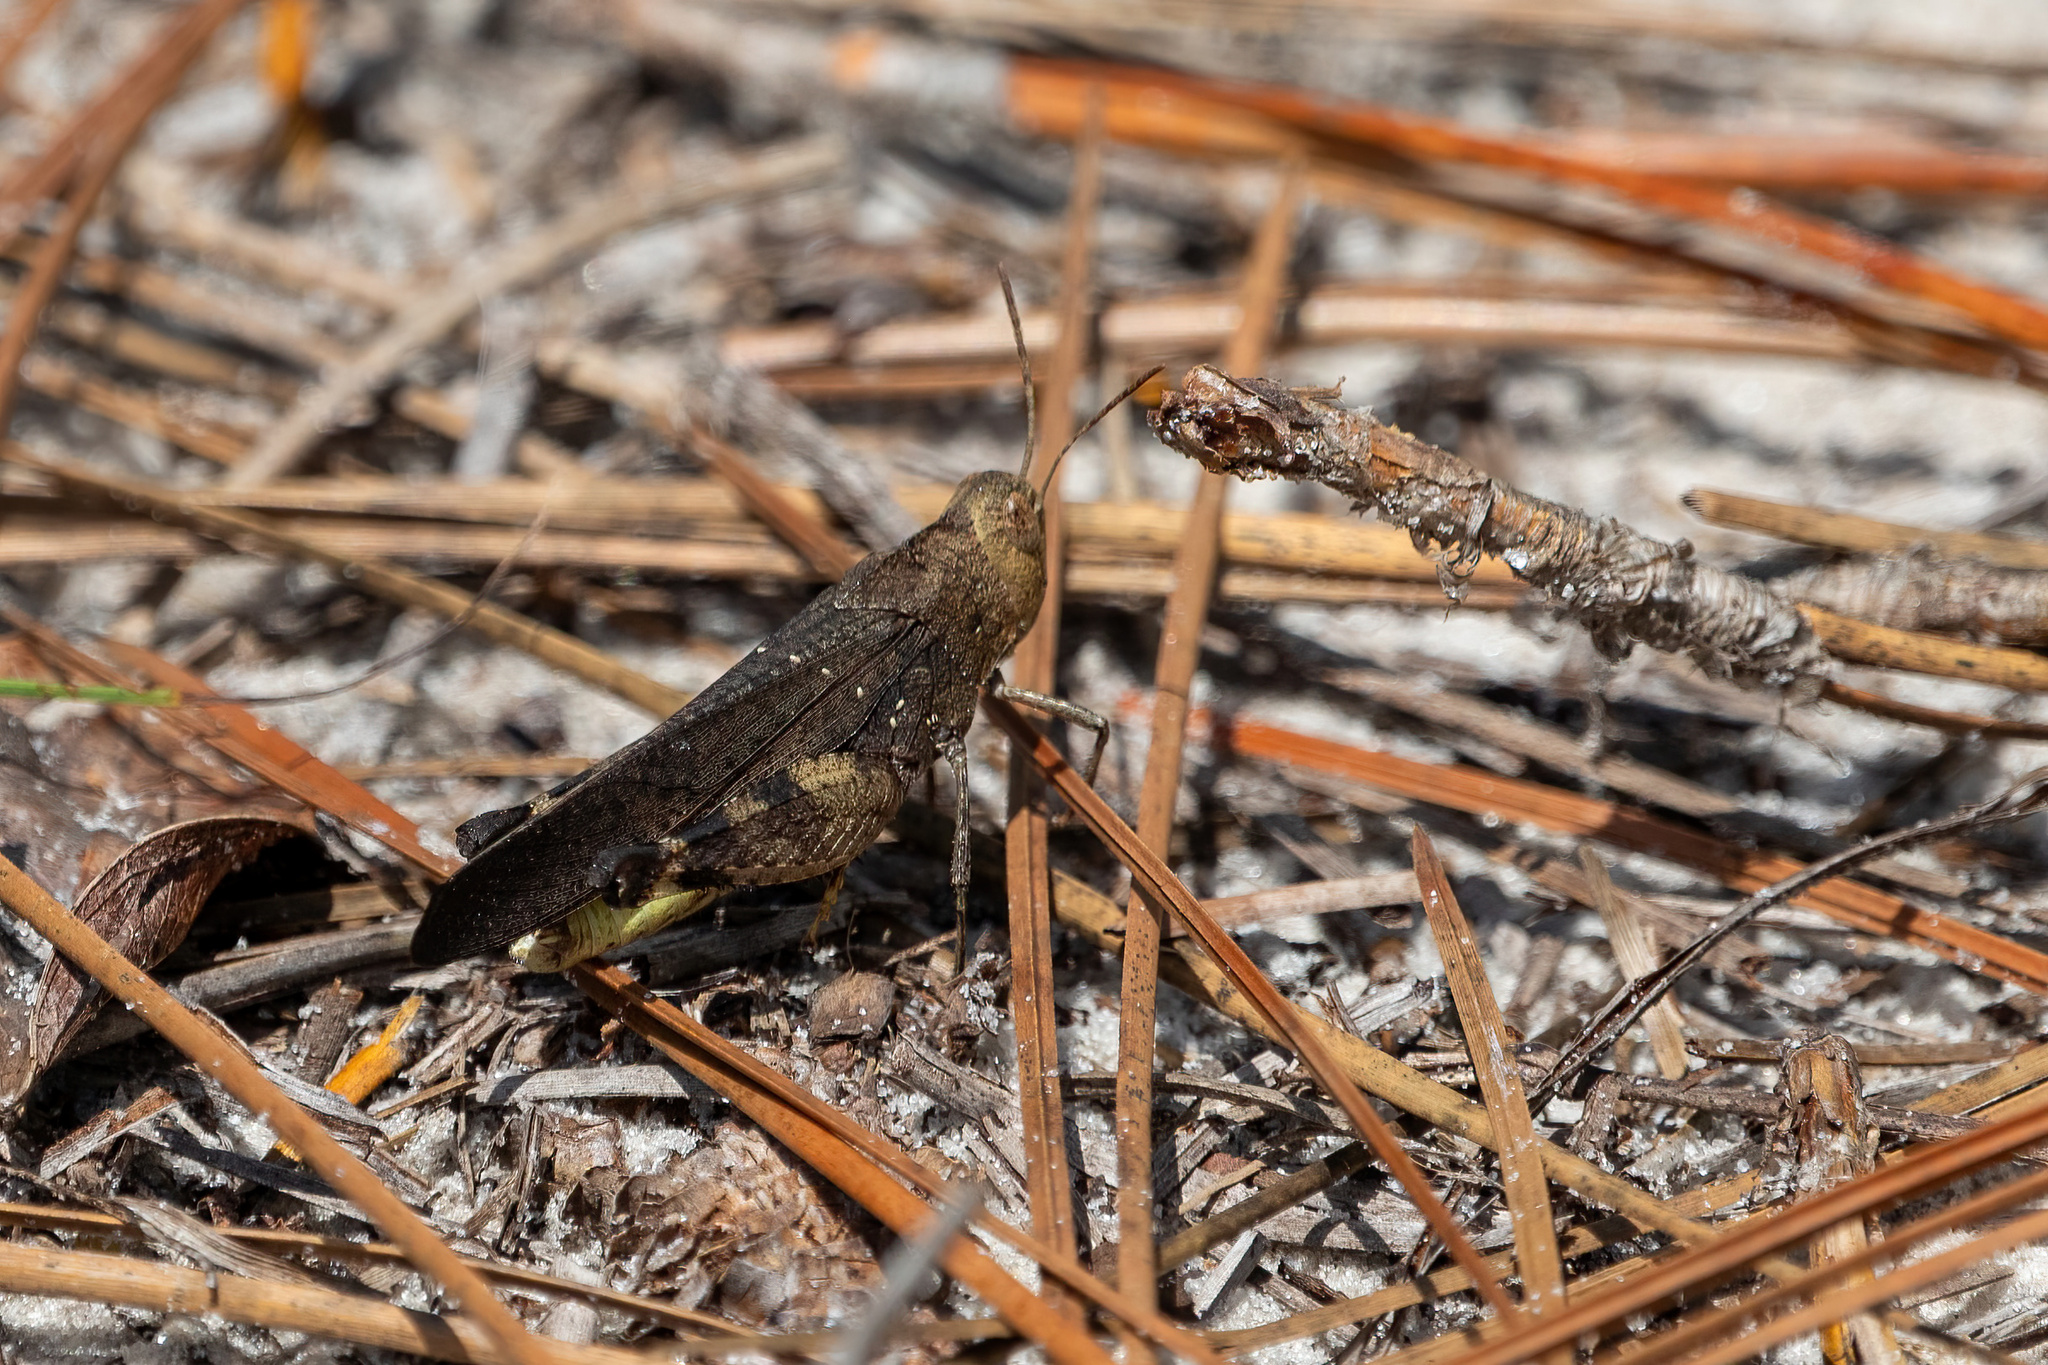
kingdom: Animalia
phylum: Arthropoda
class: Insecta
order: Orthoptera
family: Acrididae
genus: Arphia
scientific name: Arphia granulata
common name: Southern yellow-winged grasshopper
